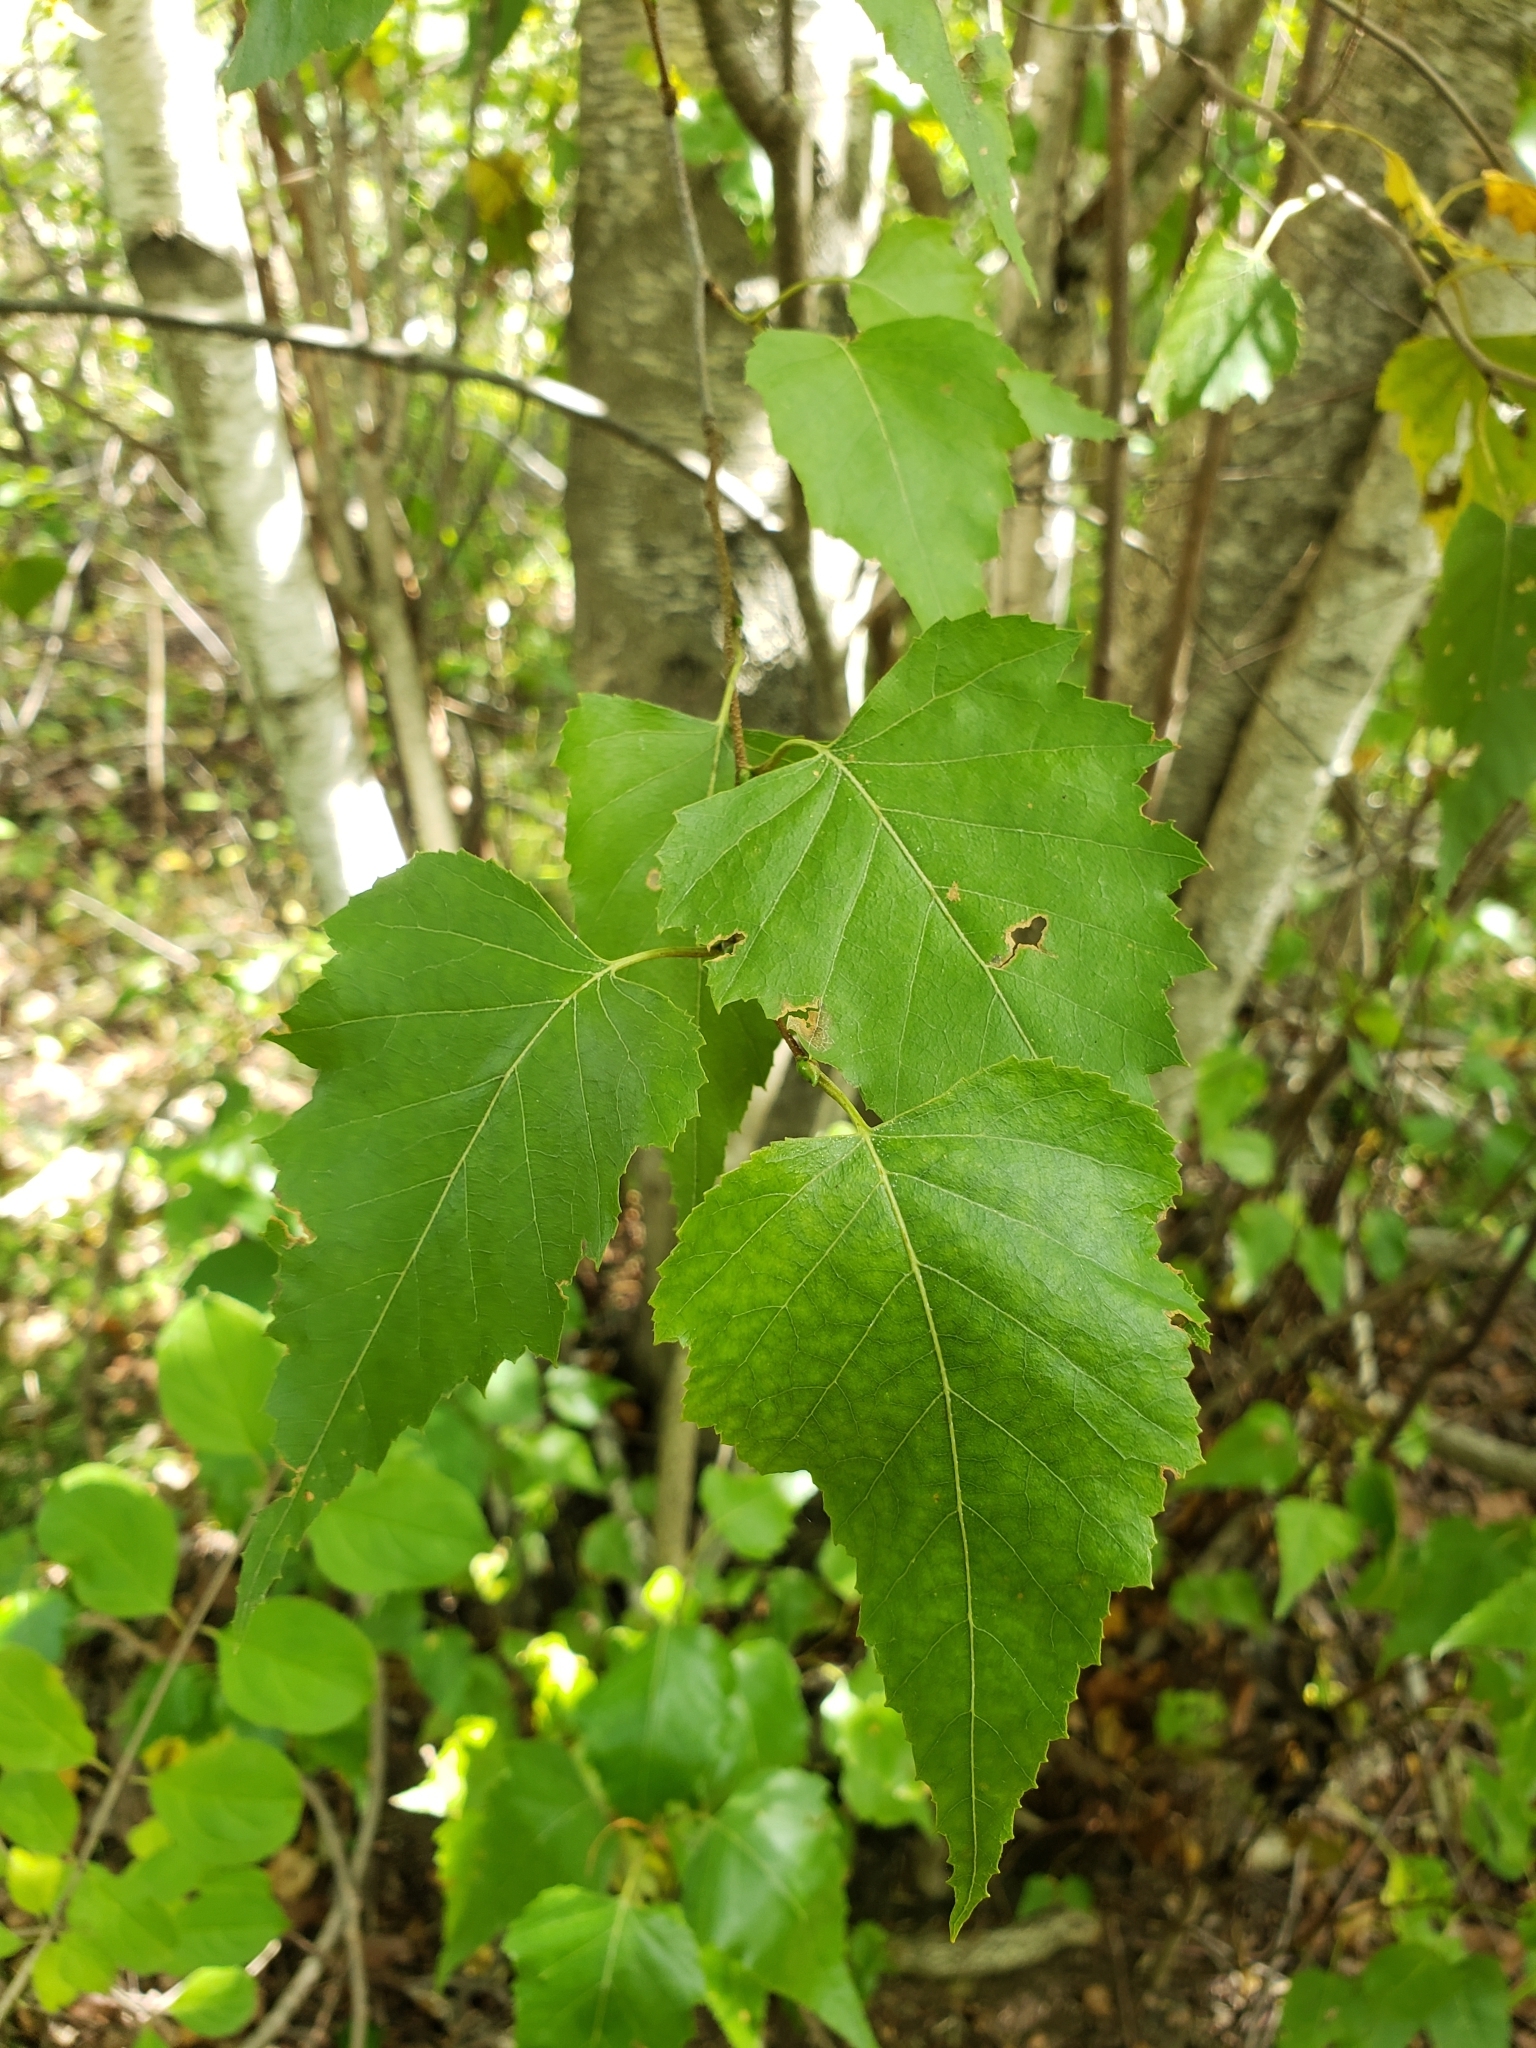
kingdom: Plantae
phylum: Tracheophyta
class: Magnoliopsida
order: Fagales
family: Betulaceae
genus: Betula
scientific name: Betula populifolia
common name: Fire birch
